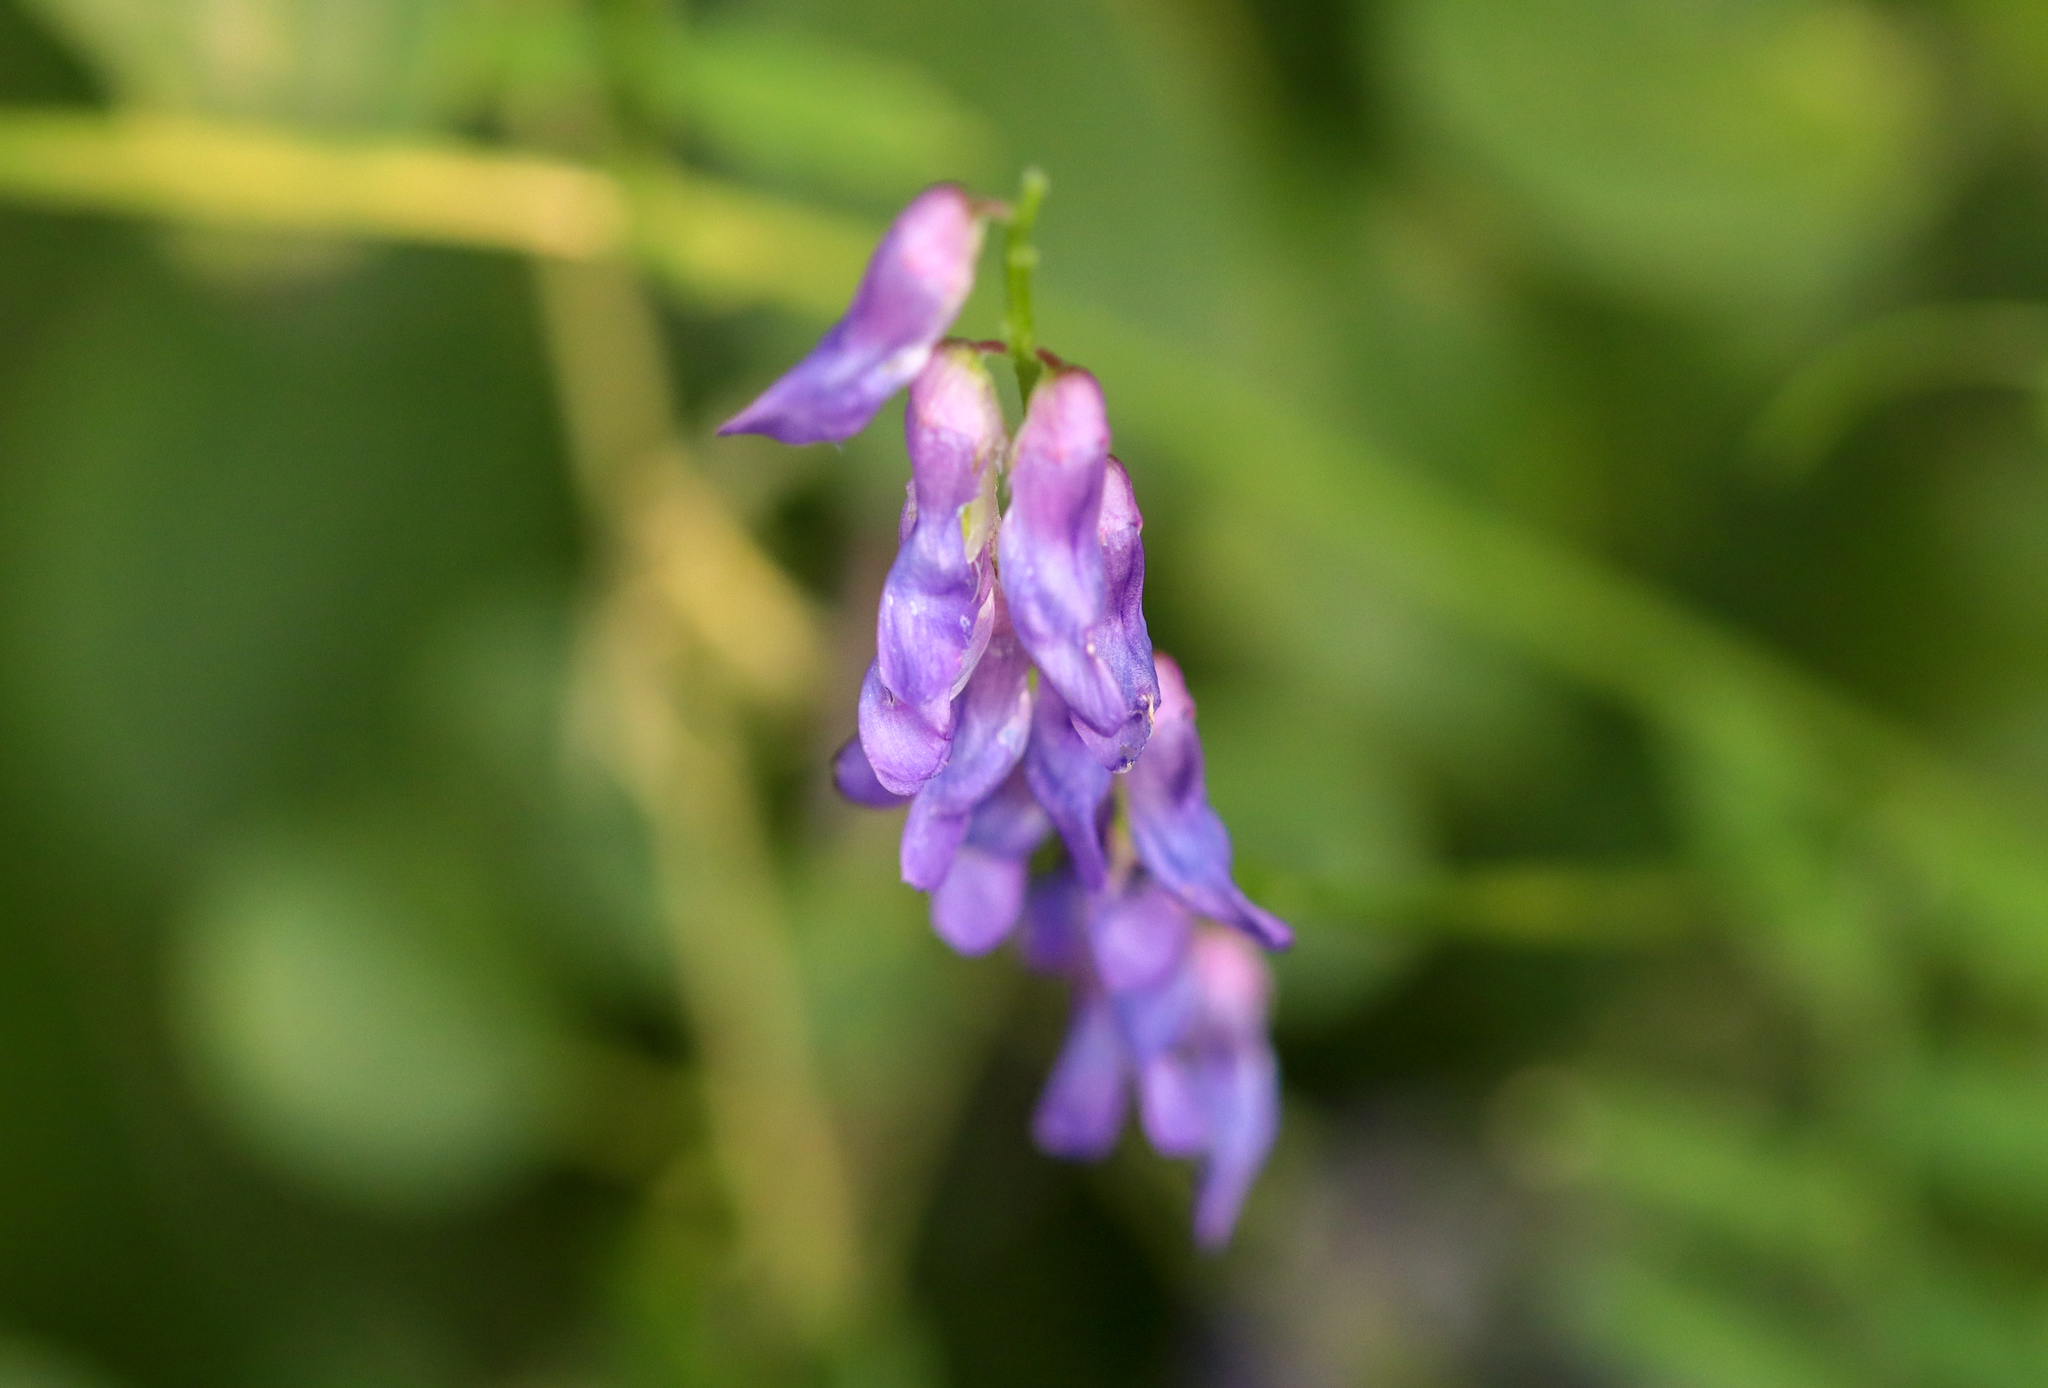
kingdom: Plantae
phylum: Tracheophyta
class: Magnoliopsida
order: Fabales
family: Fabaceae
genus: Vicia
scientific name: Vicia cracca
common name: Bird vetch
